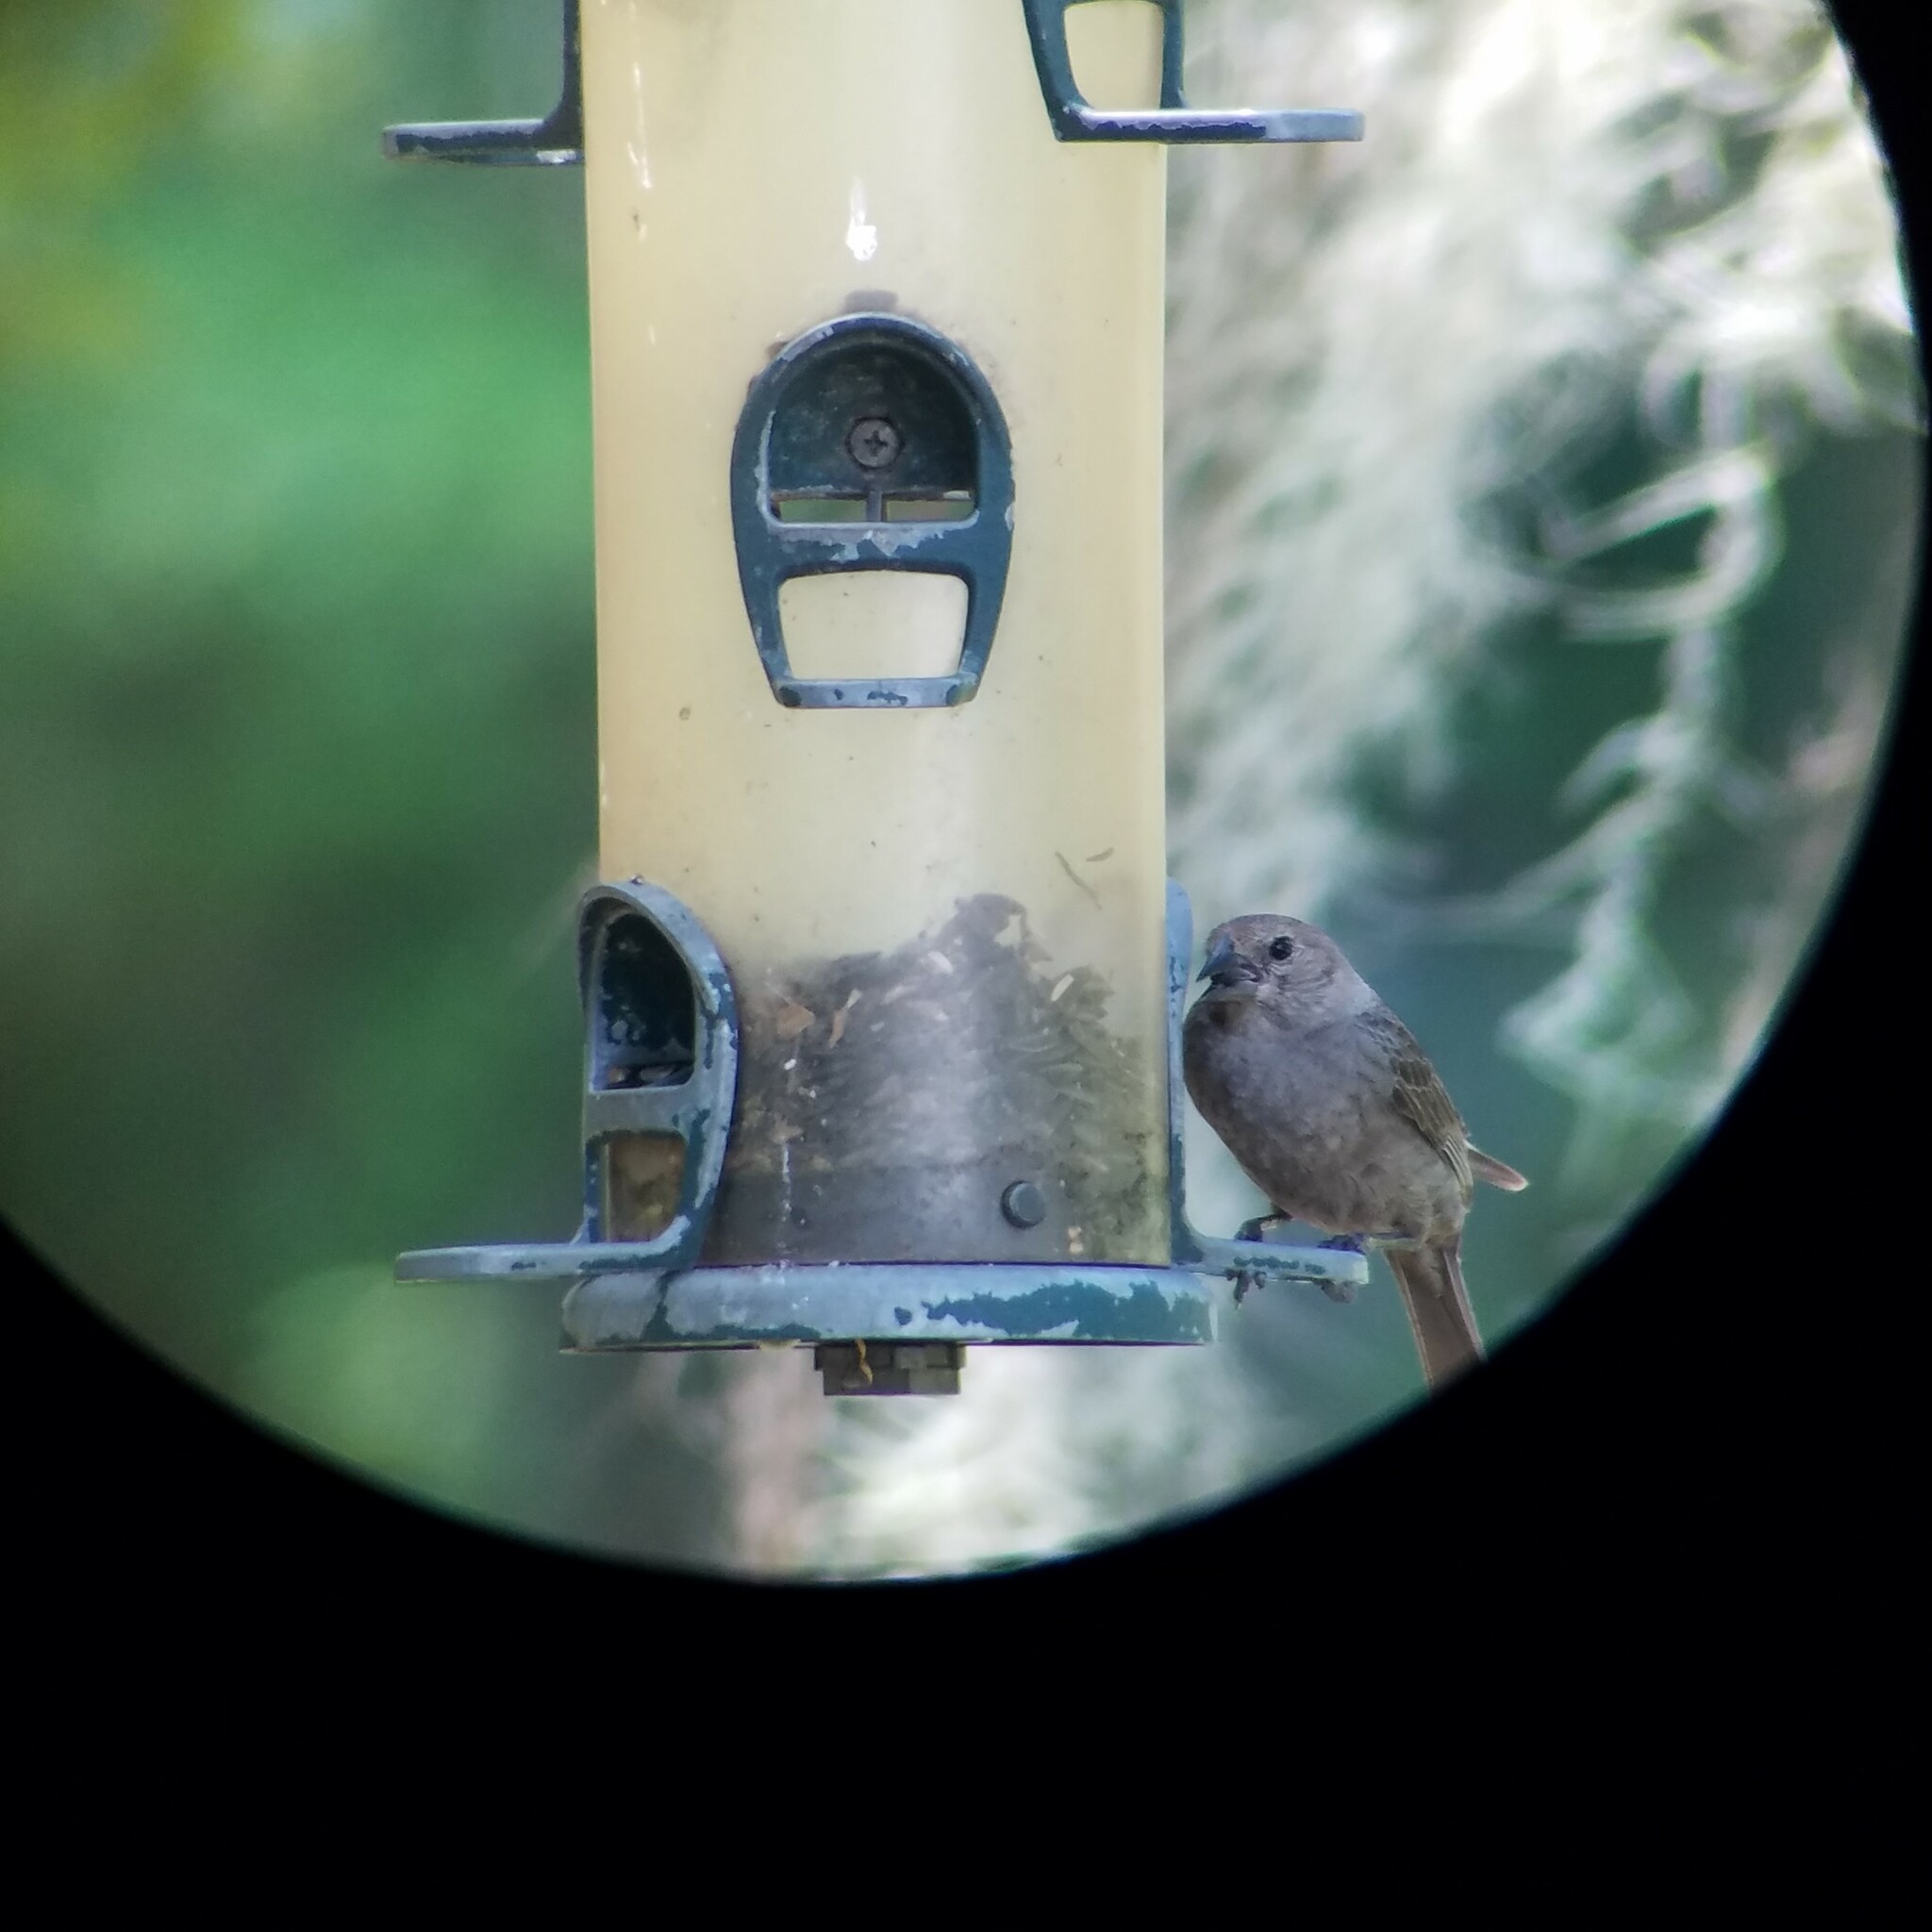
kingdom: Animalia
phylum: Chordata
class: Aves
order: Passeriformes
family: Icteridae
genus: Molothrus
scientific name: Molothrus ater
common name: Brown-headed cowbird
